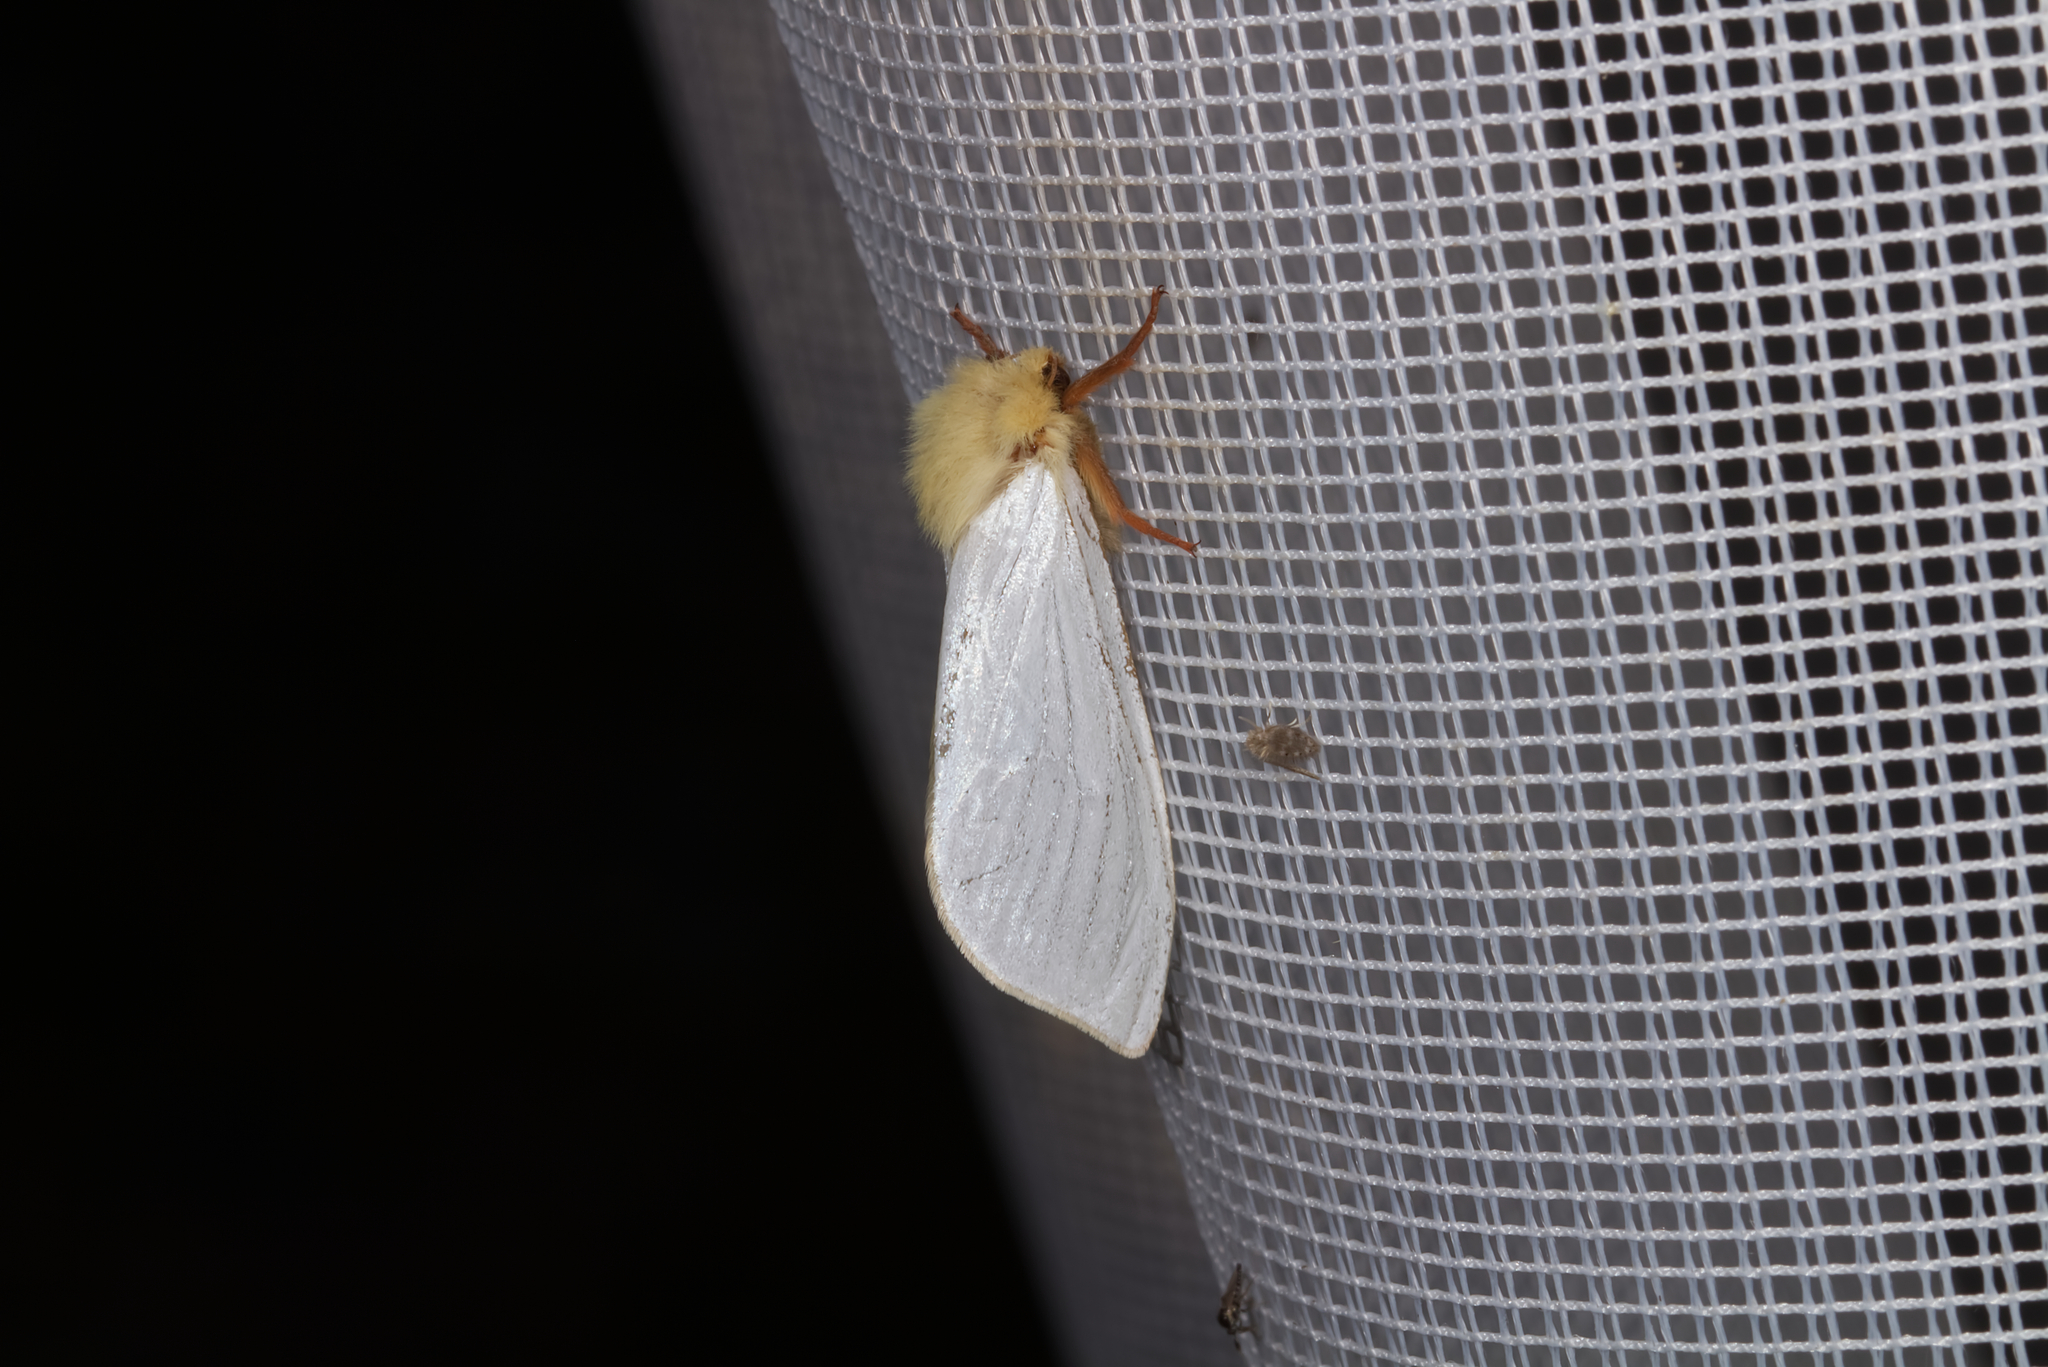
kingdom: Animalia
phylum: Arthropoda
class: Insecta
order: Lepidoptera
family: Hepialidae
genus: Hepialus
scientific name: Hepialus humuli
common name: Ghost moth
